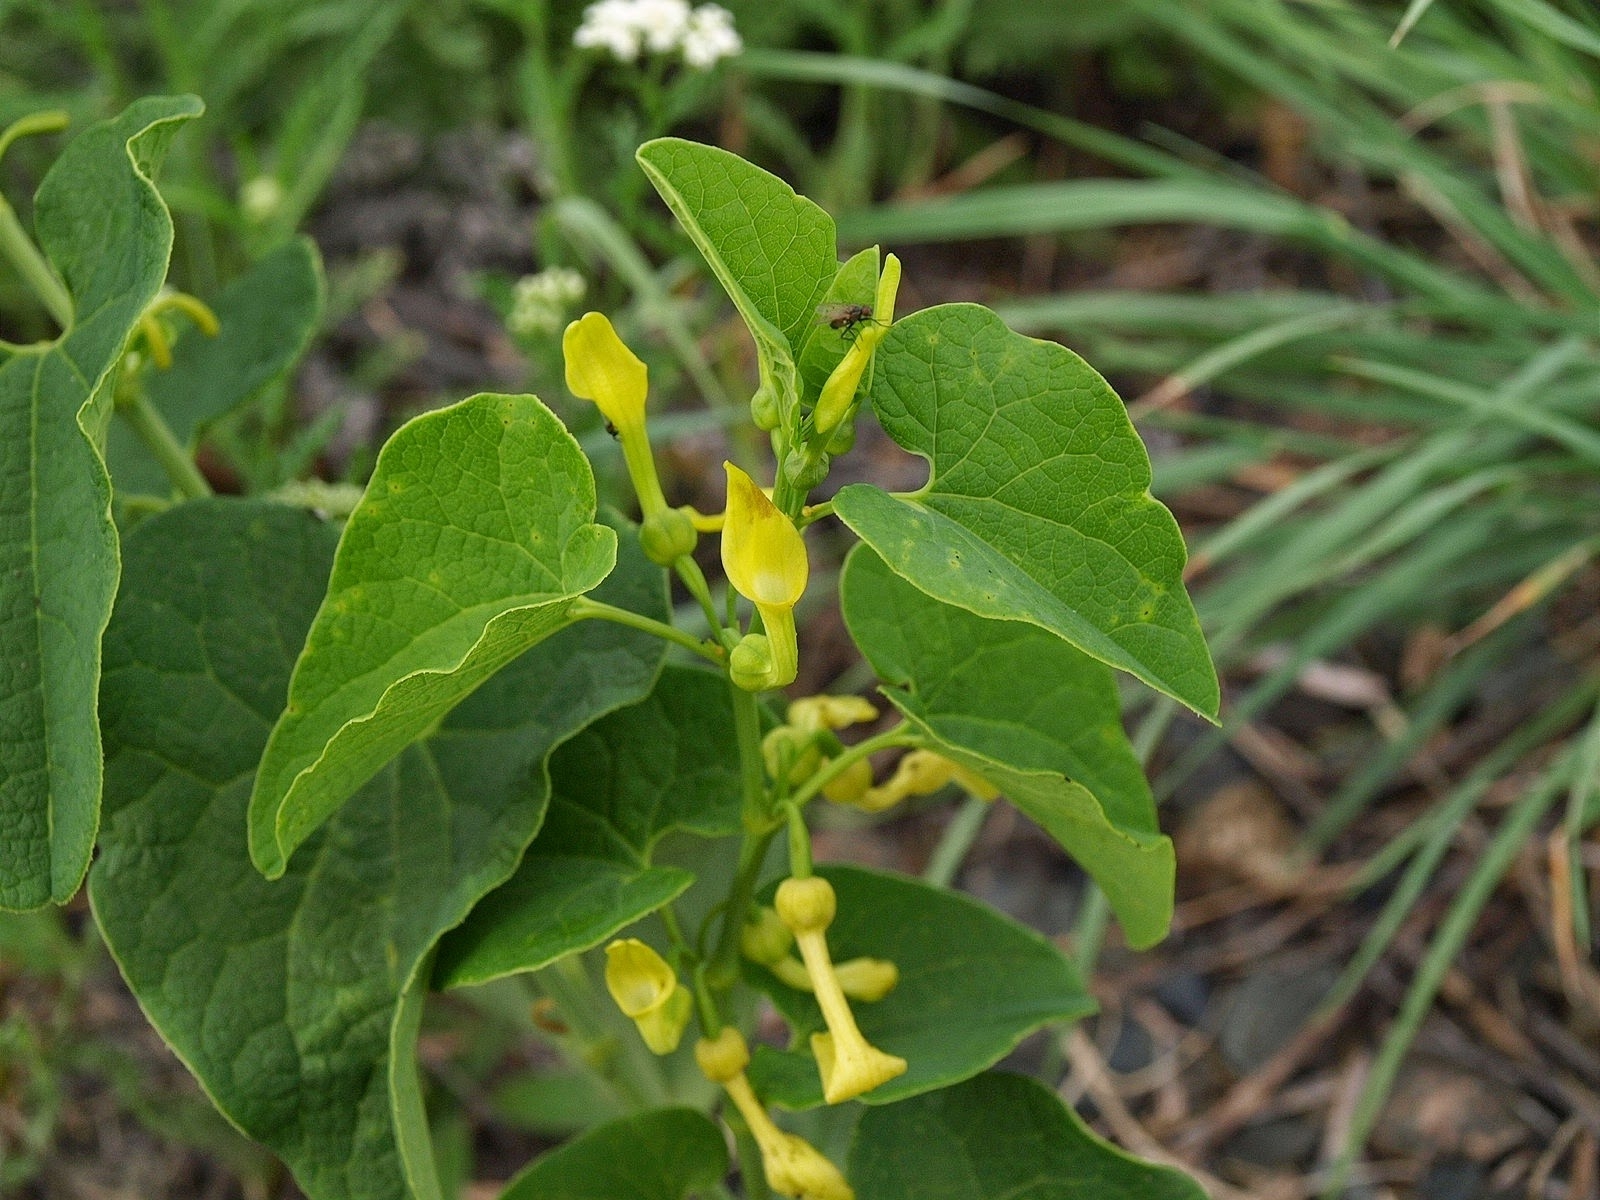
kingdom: Plantae
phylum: Tracheophyta
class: Magnoliopsida
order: Piperales
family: Aristolochiaceae
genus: Aristolochia
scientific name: Aristolochia clematitis
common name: Birthwort
